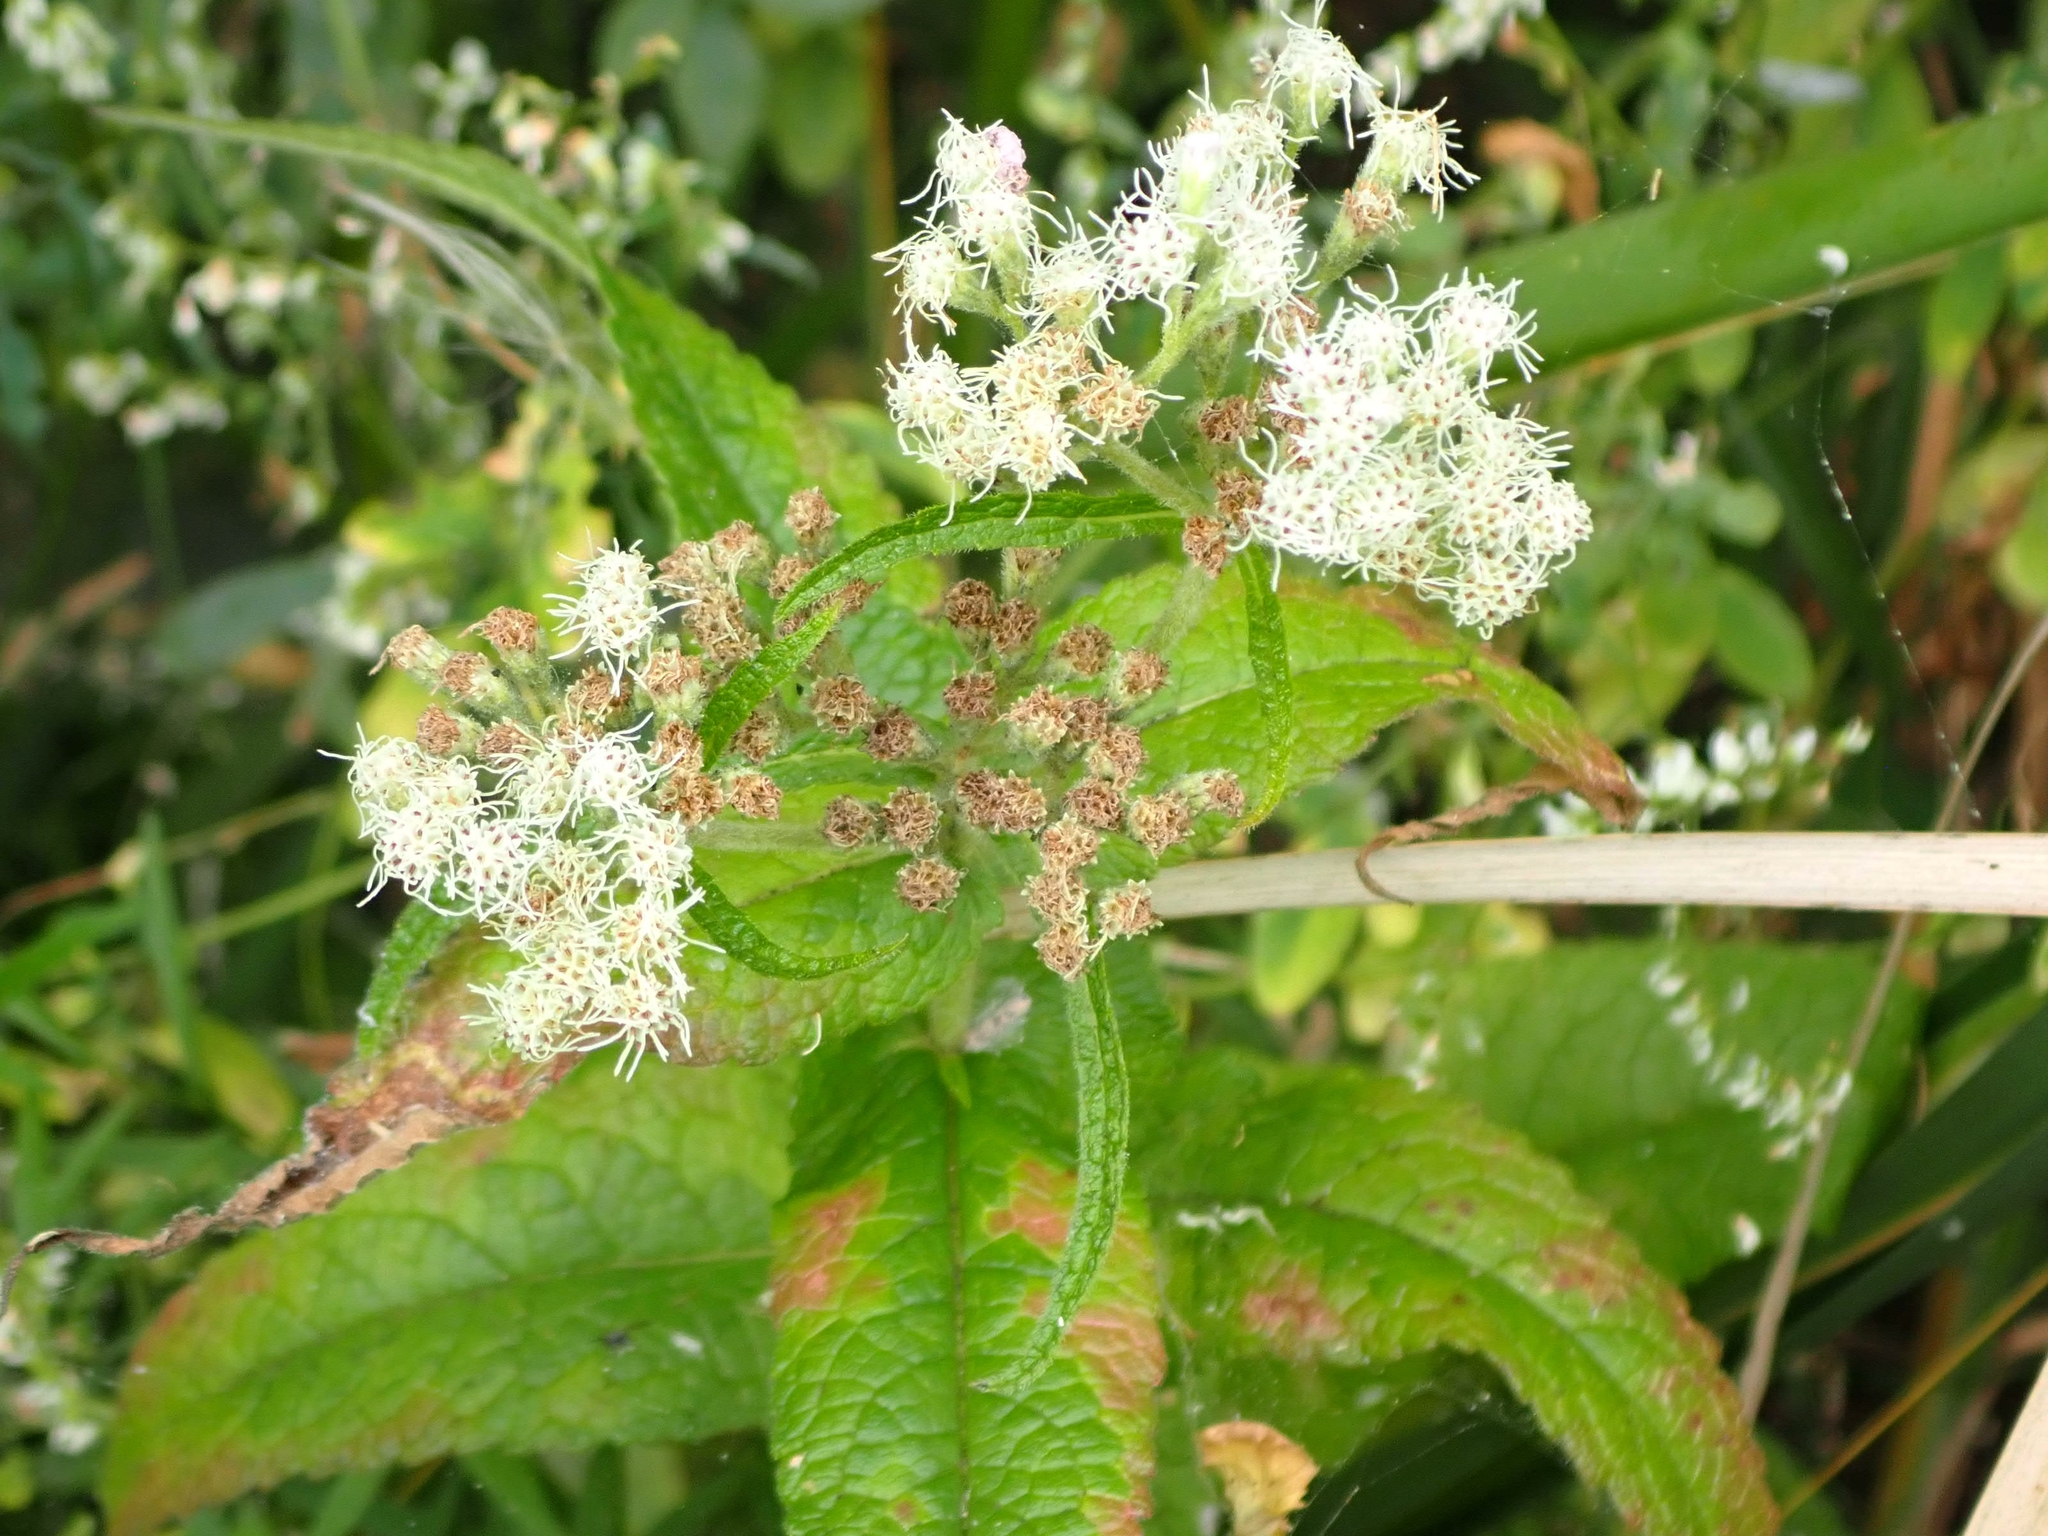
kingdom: Plantae
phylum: Tracheophyta
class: Magnoliopsida
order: Asterales
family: Asteraceae
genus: Eupatorium
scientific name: Eupatorium perfoliatum
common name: Boneset
